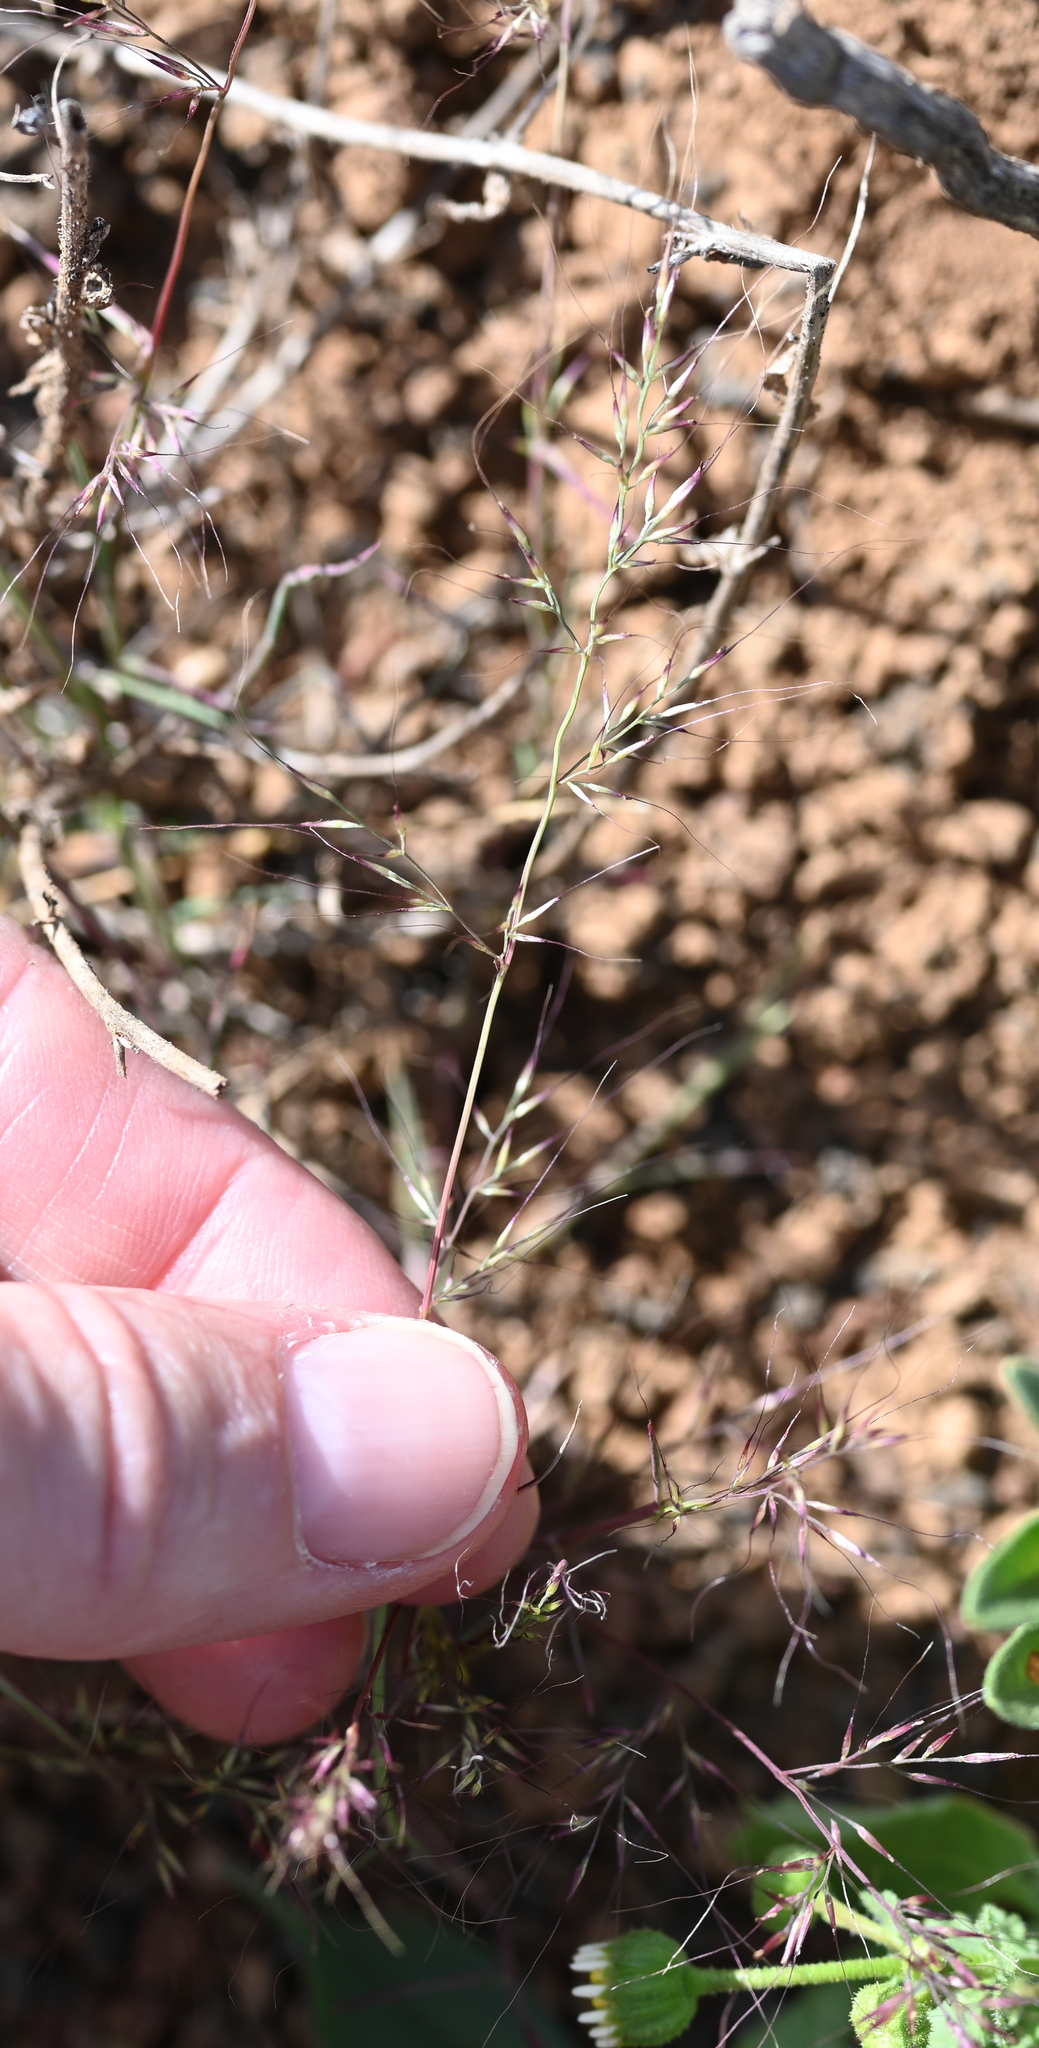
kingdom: Plantae
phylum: Tracheophyta
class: Liliopsida
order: Poales
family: Poaceae
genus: Muhlenbergia
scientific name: Muhlenbergia microsperma
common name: Littleseed muhly
